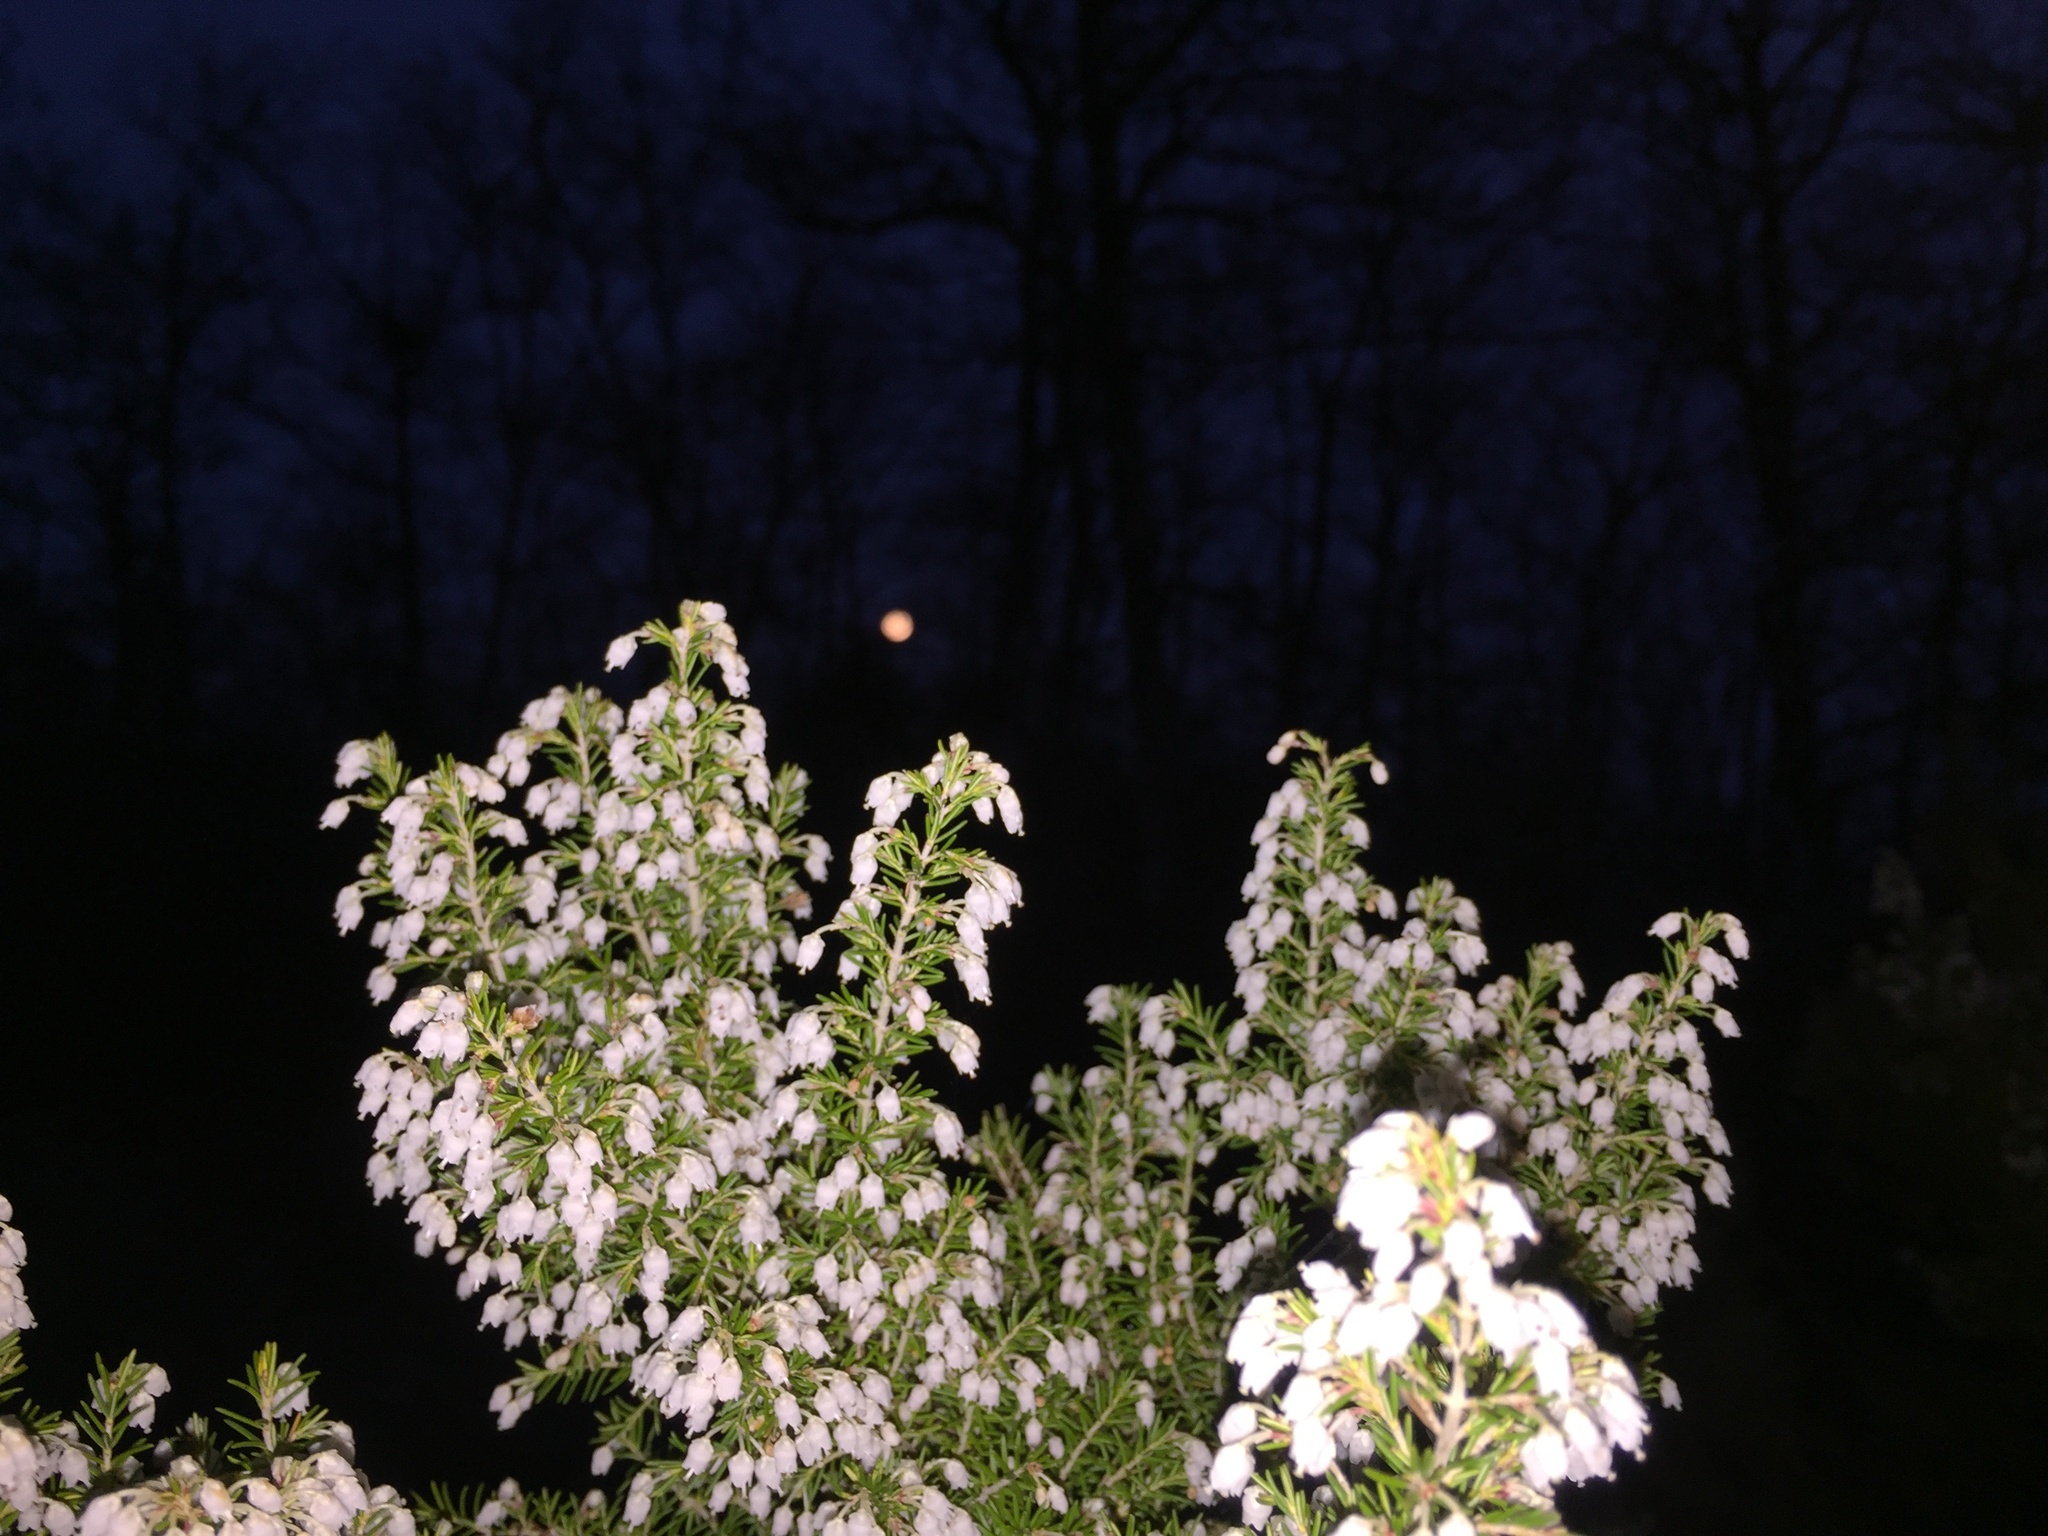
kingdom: Plantae
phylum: Tracheophyta
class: Magnoliopsida
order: Ericales
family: Ericaceae
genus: Erica
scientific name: Erica arborea
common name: Tree heath
